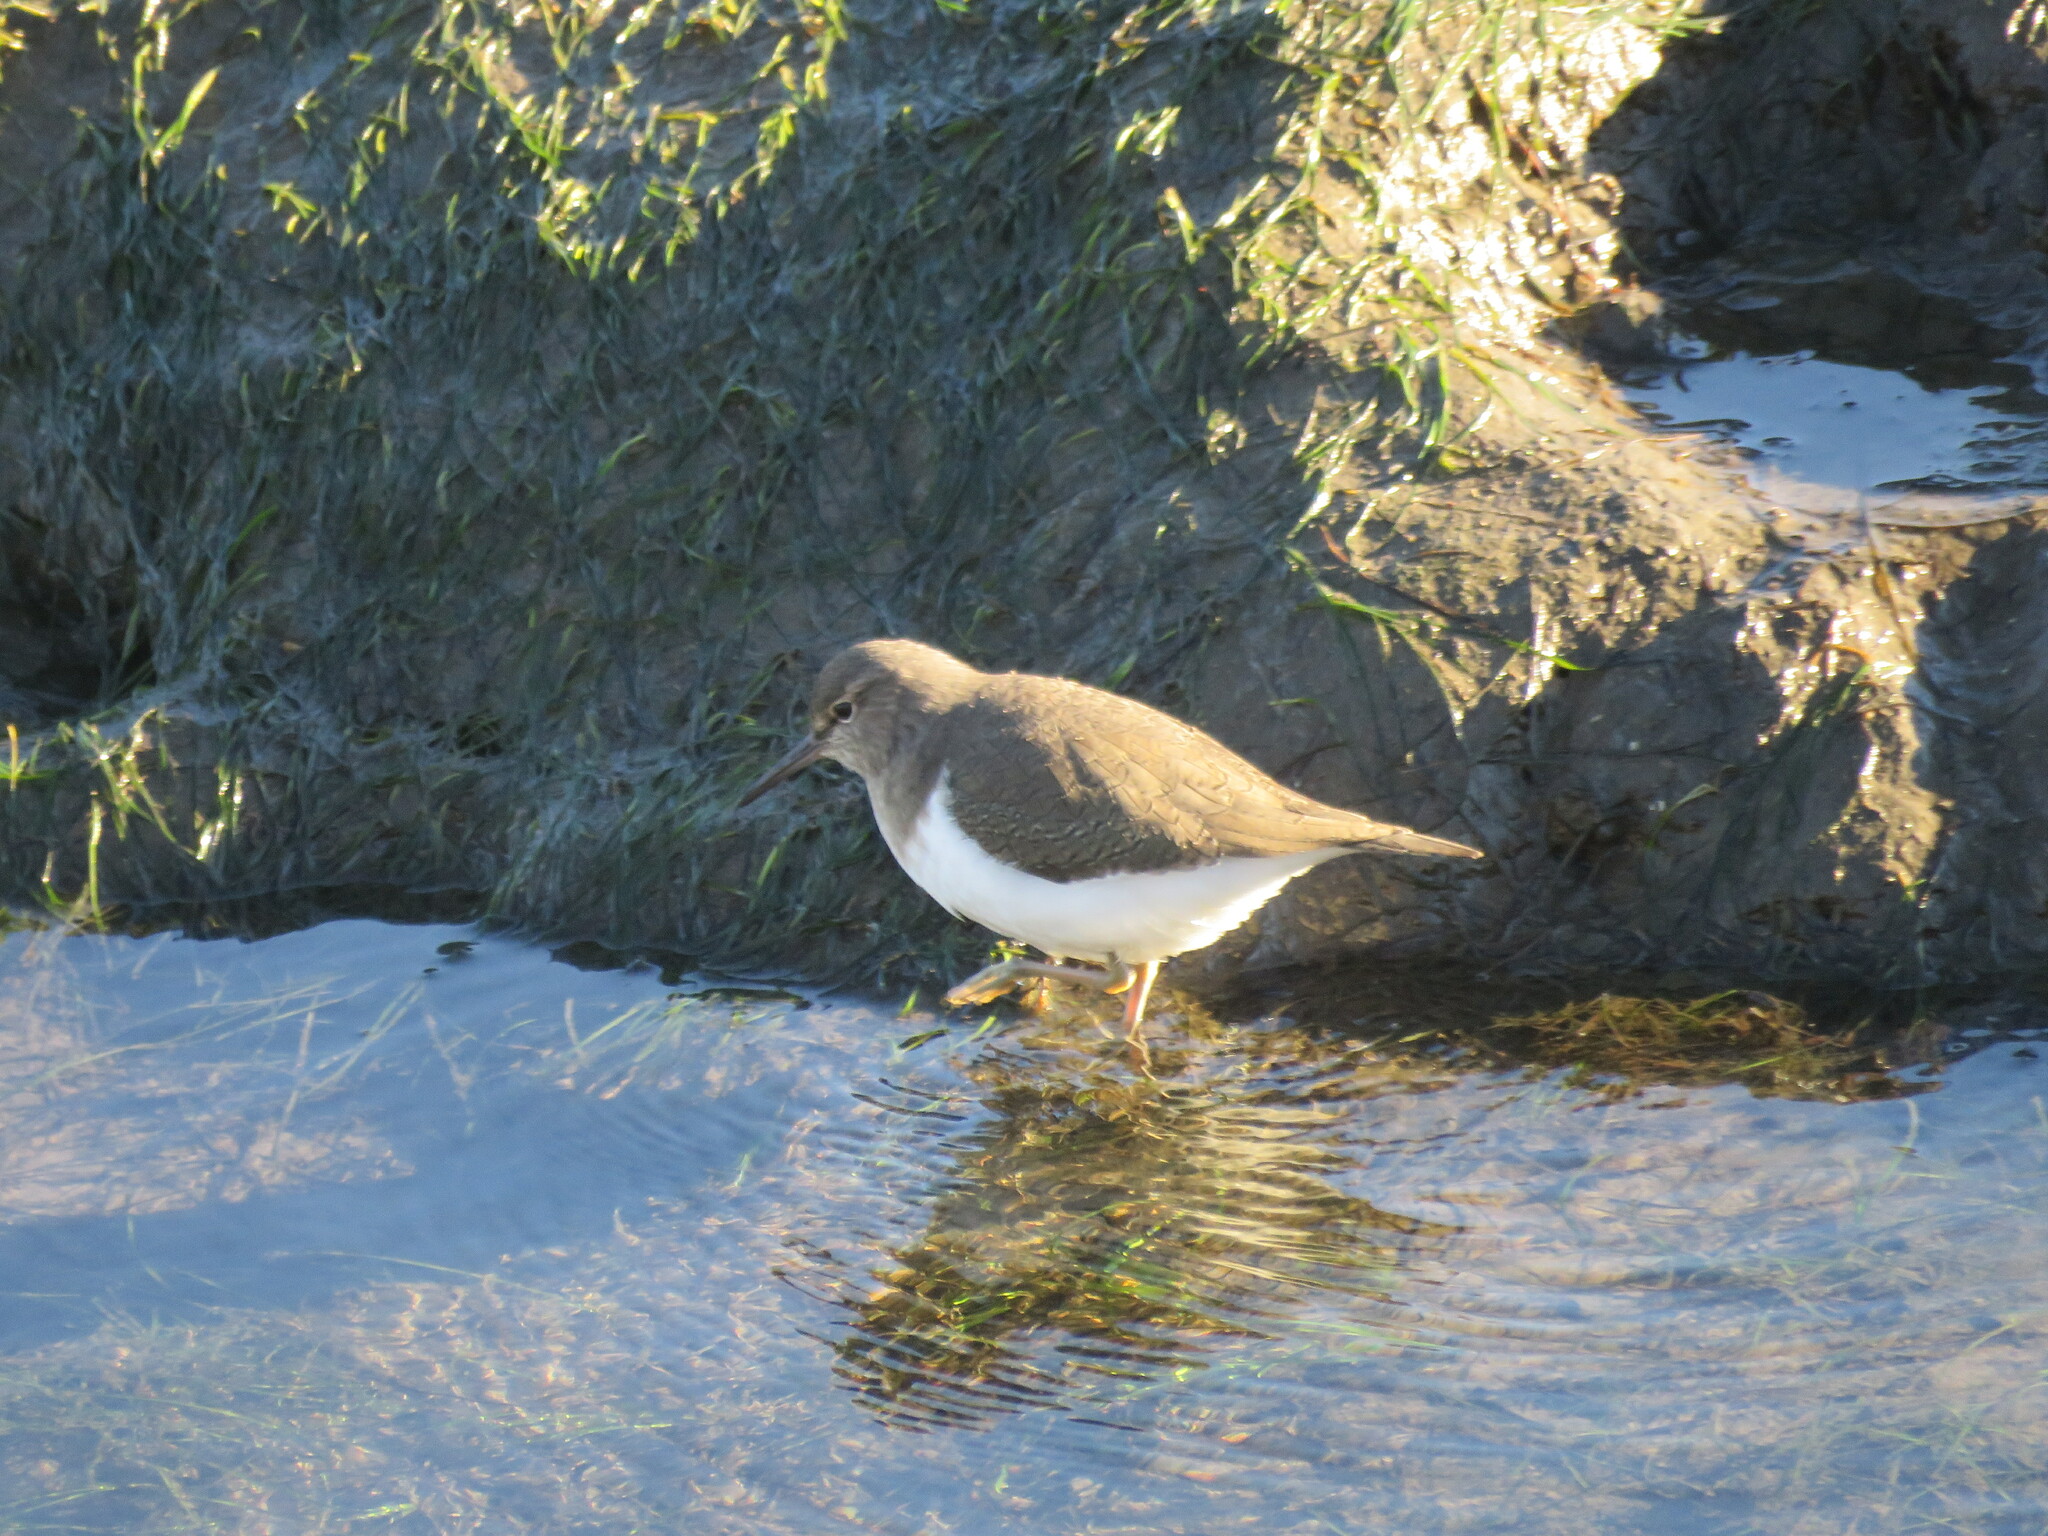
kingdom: Animalia
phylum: Chordata
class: Aves
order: Charadriiformes
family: Scolopacidae
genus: Actitis
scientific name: Actitis hypoleucos
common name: Common sandpiper
